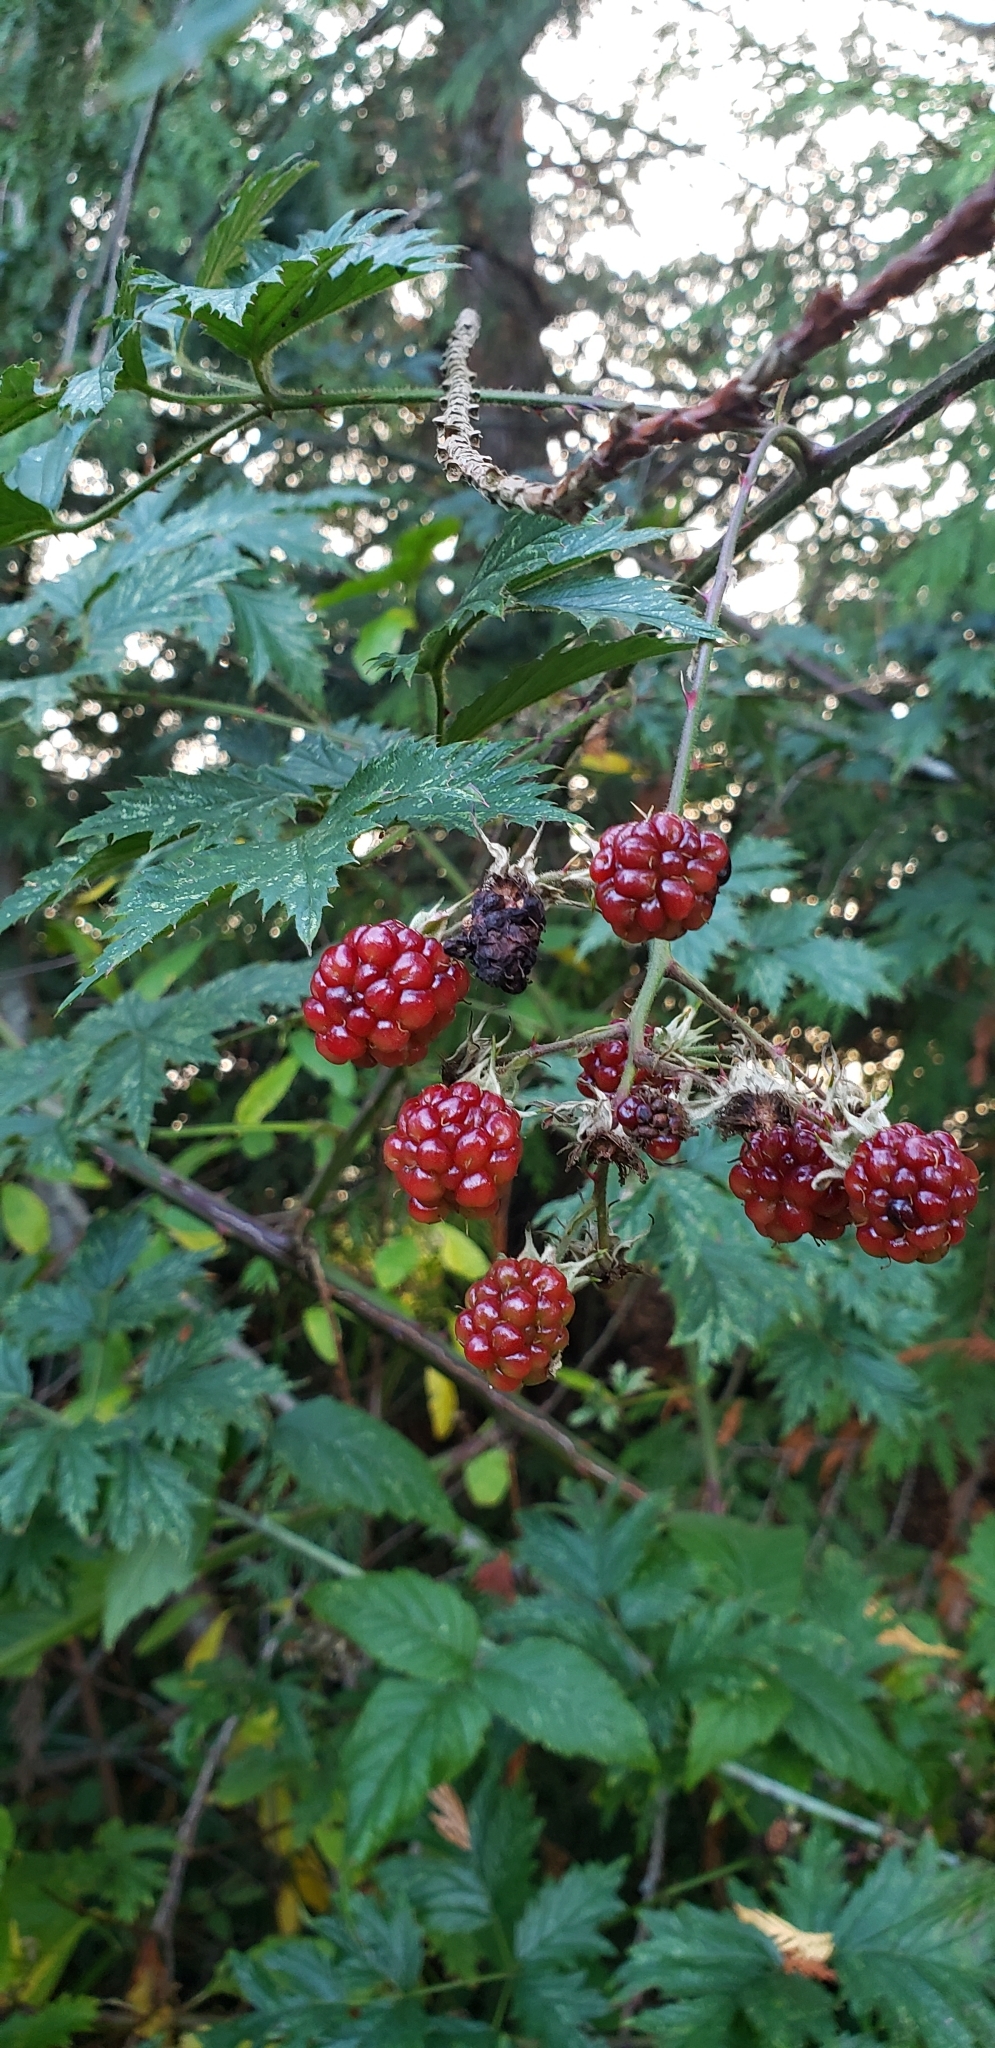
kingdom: Plantae
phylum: Tracheophyta
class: Magnoliopsida
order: Rosales
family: Rosaceae
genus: Rubus
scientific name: Rubus laciniatus
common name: Evergreen blackberry
